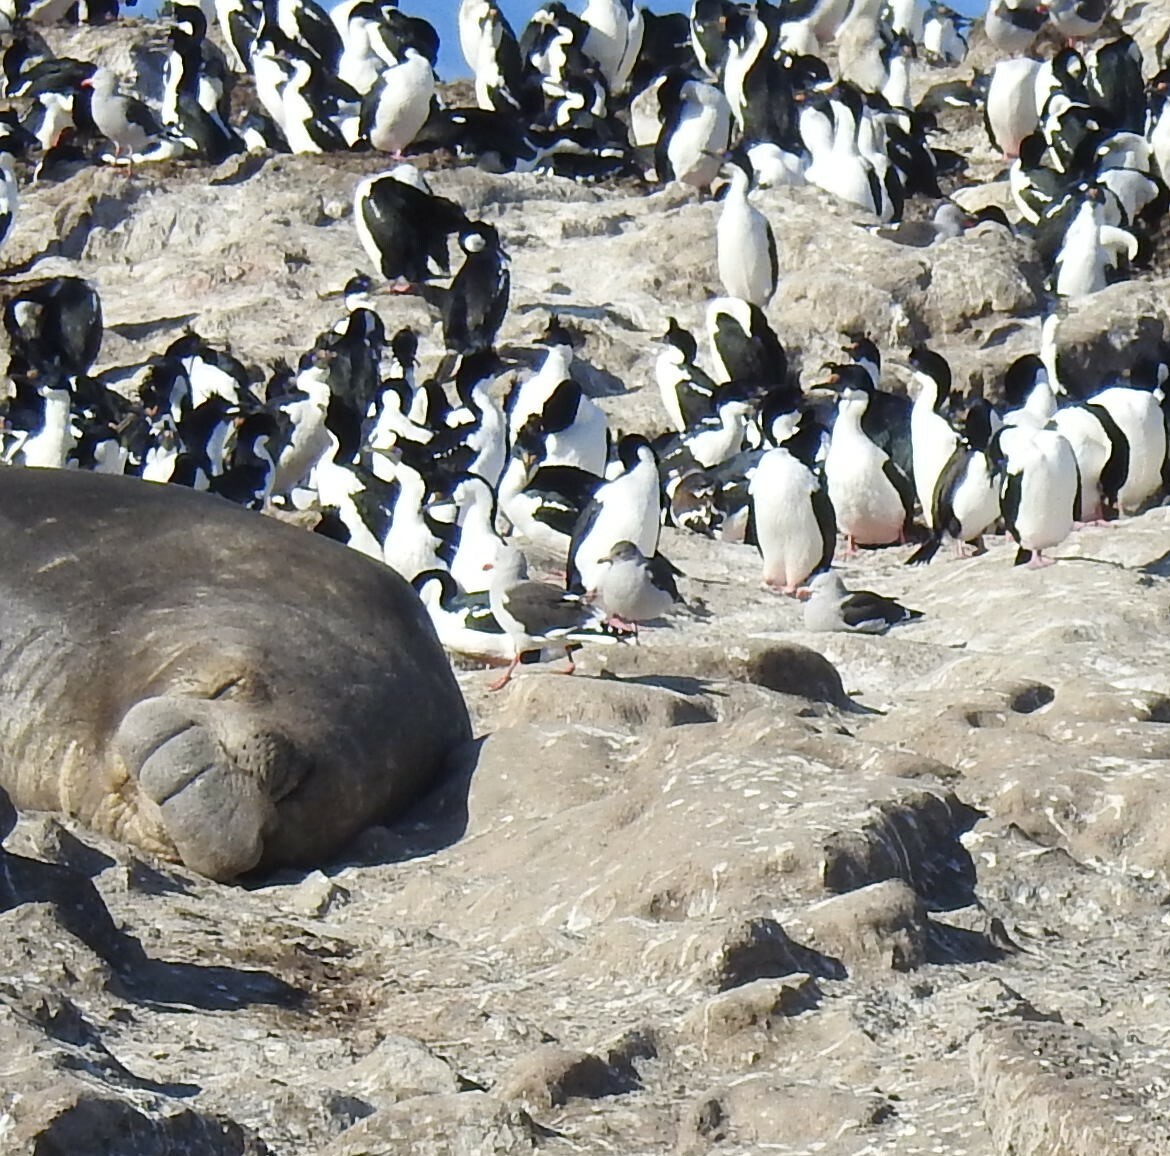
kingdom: Animalia
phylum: Chordata
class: Mammalia
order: Carnivora
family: Phocidae
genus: Mirounga
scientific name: Mirounga leonina
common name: Southern elephant seal
